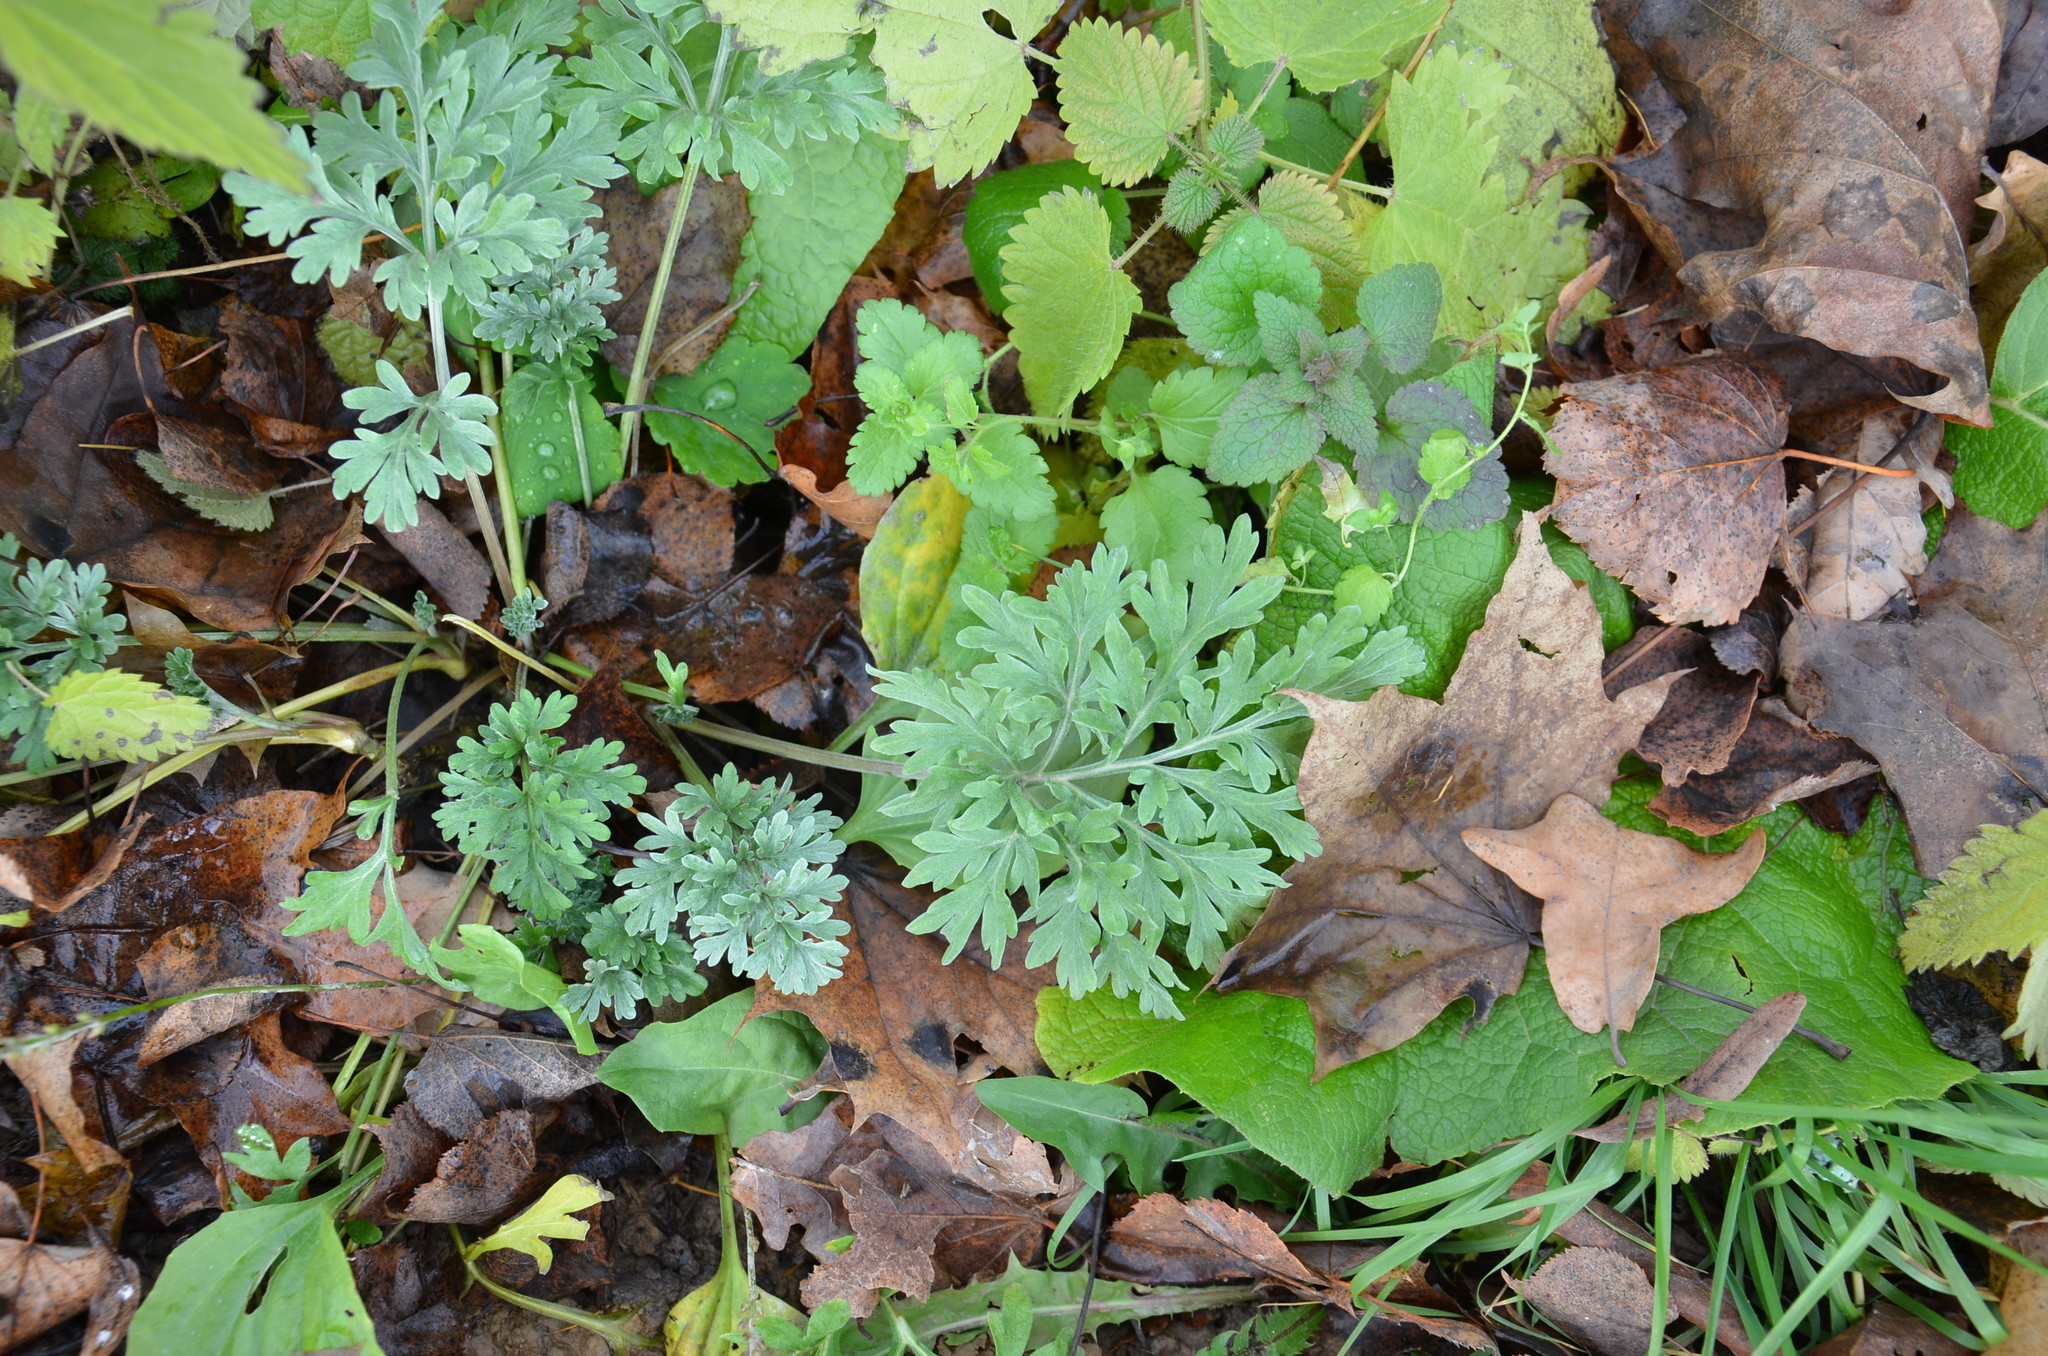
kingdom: Plantae
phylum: Tracheophyta
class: Magnoliopsida
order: Asterales
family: Asteraceae
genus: Artemisia
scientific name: Artemisia absinthium
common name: Wormwood
